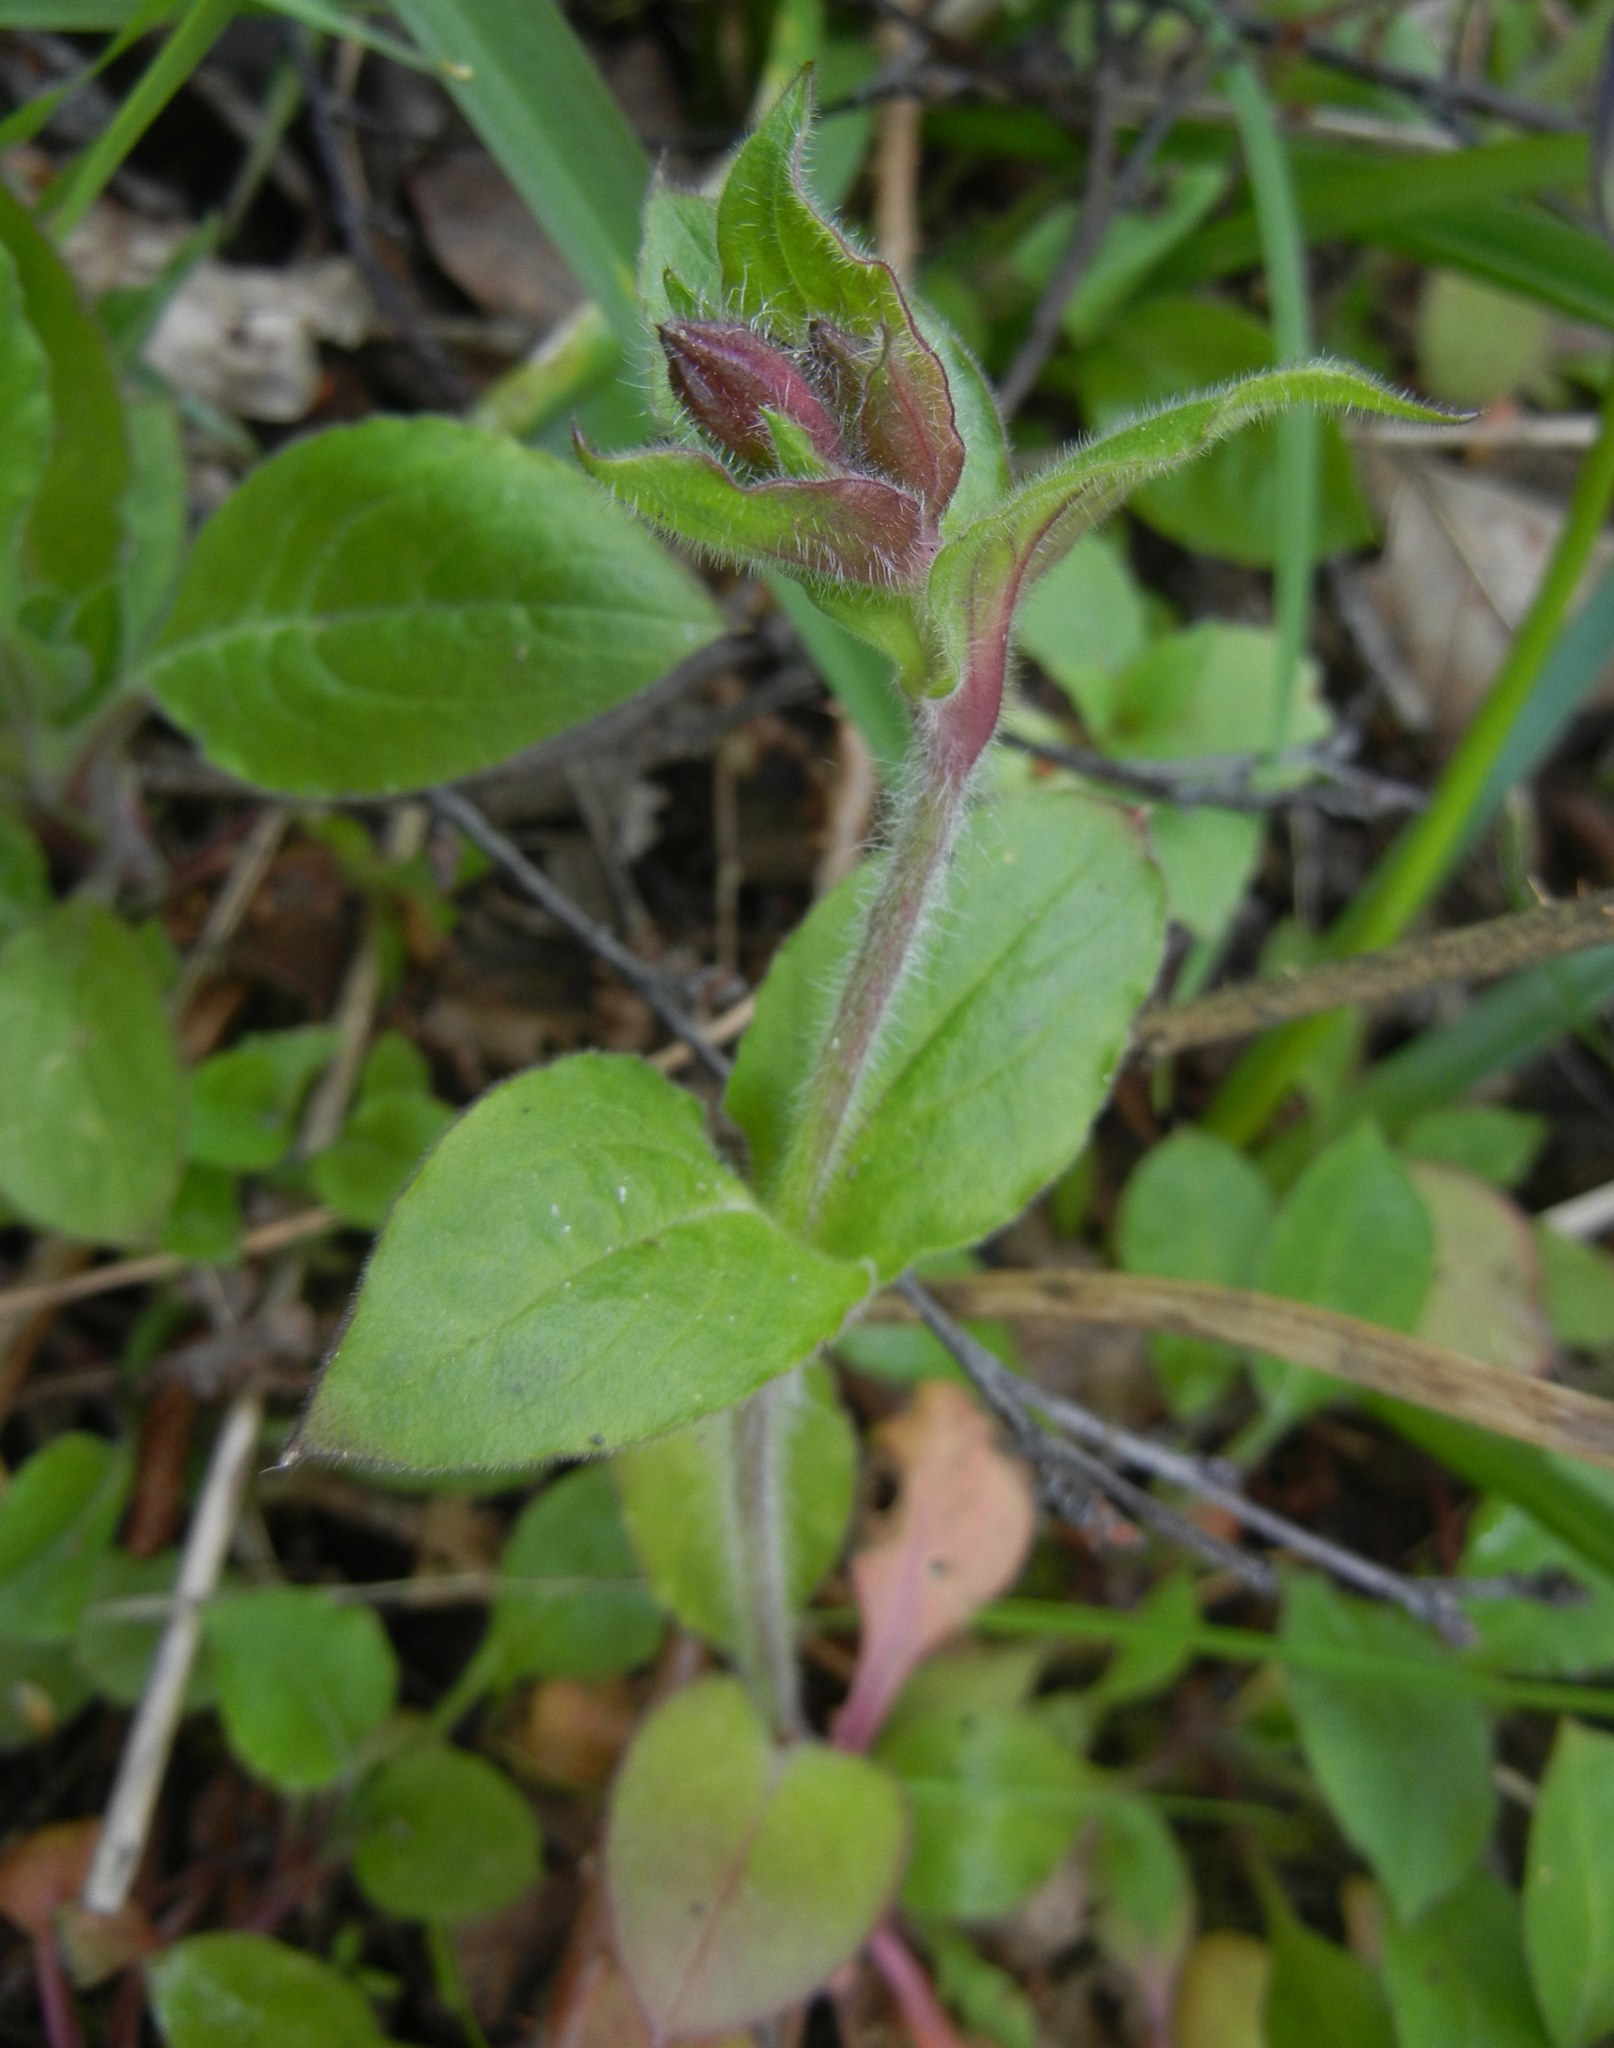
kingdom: Plantae
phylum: Tracheophyta
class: Magnoliopsida
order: Caryophyllales
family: Caryophyllaceae
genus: Silene
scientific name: Silene dioica
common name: Red campion
